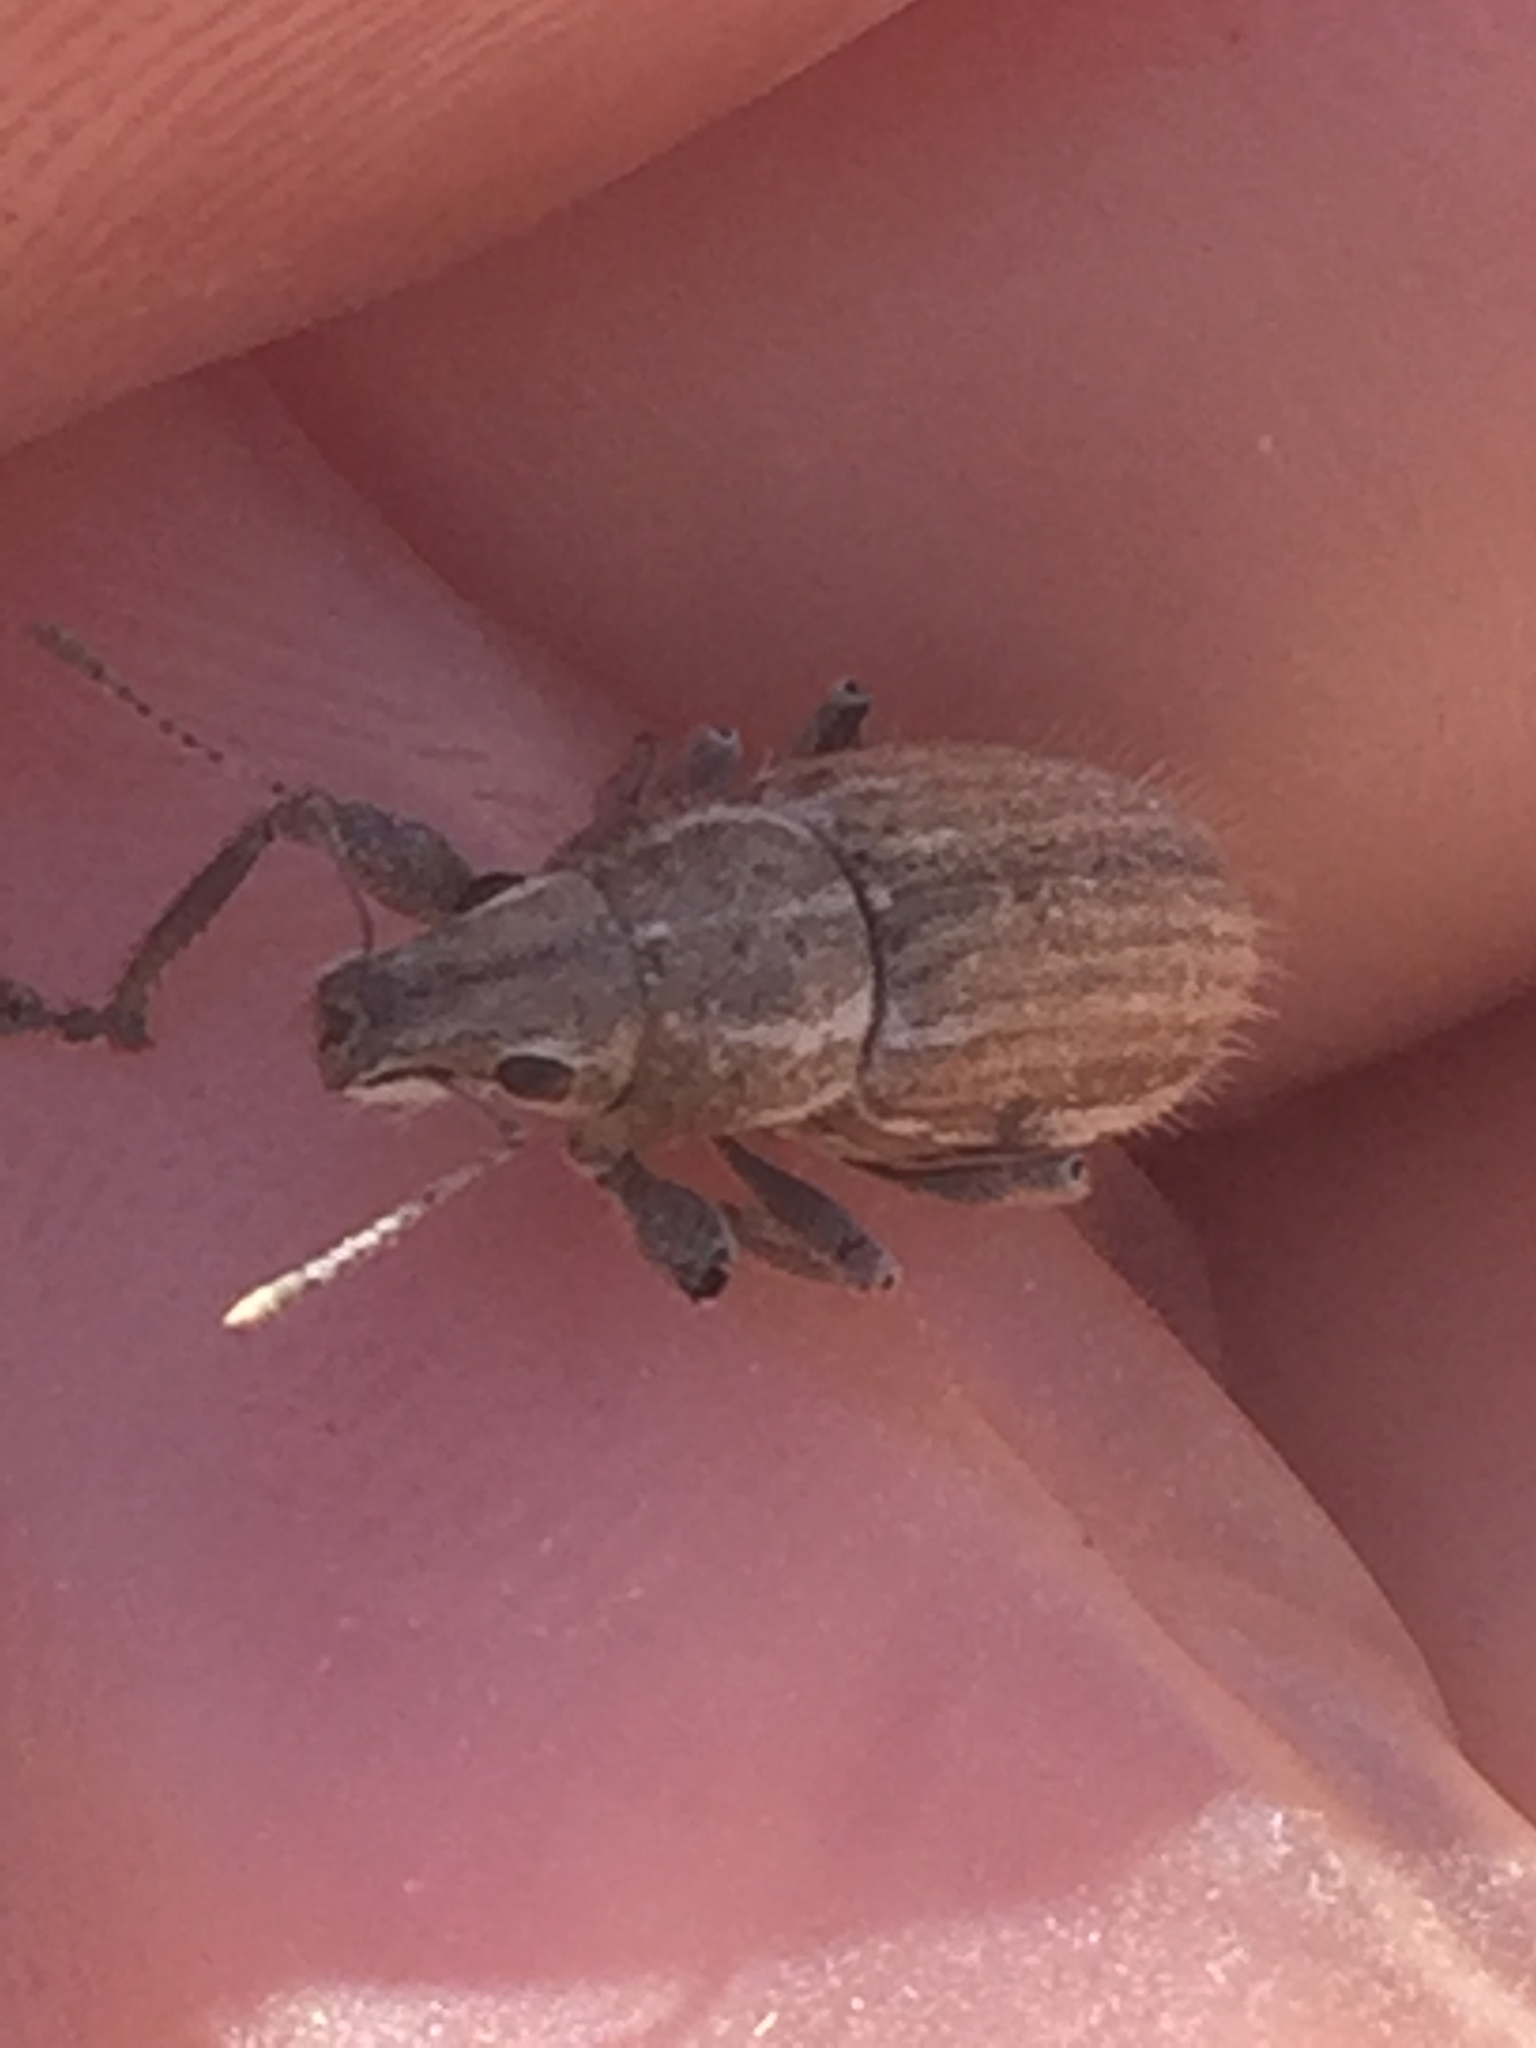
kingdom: Animalia
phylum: Arthropoda
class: Insecta
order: Coleoptera
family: Curculionidae
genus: Naupactus
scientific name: Naupactus leucoloma
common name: Whitefringed beetle
